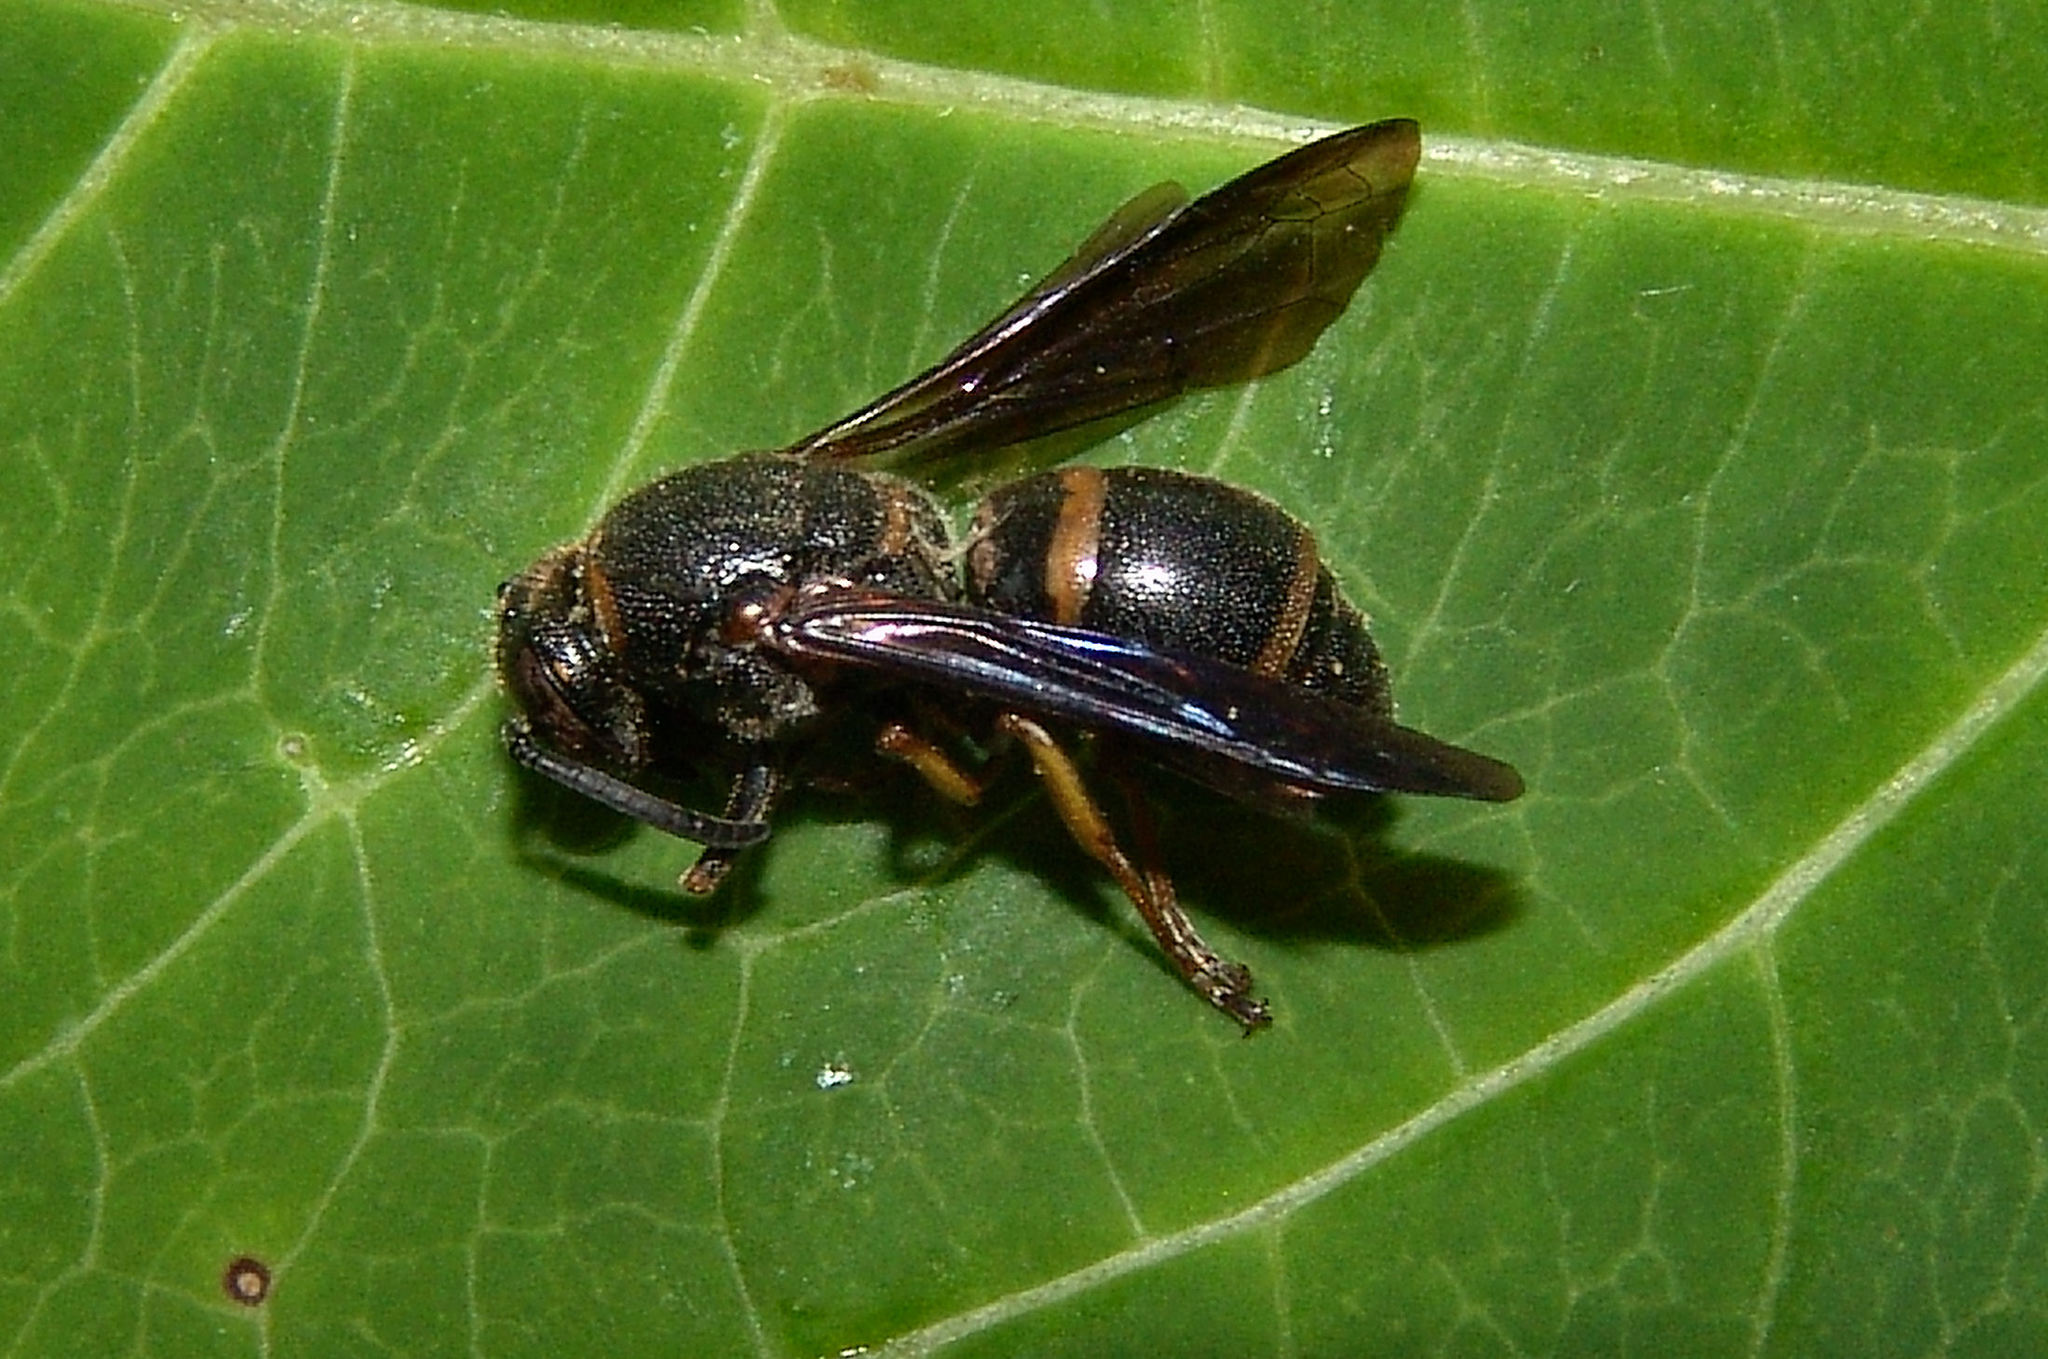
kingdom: Animalia
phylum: Arthropoda
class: Insecta
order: Hymenoptera
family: Eumenidae
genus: Euodynerus
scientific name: Euodynerus
